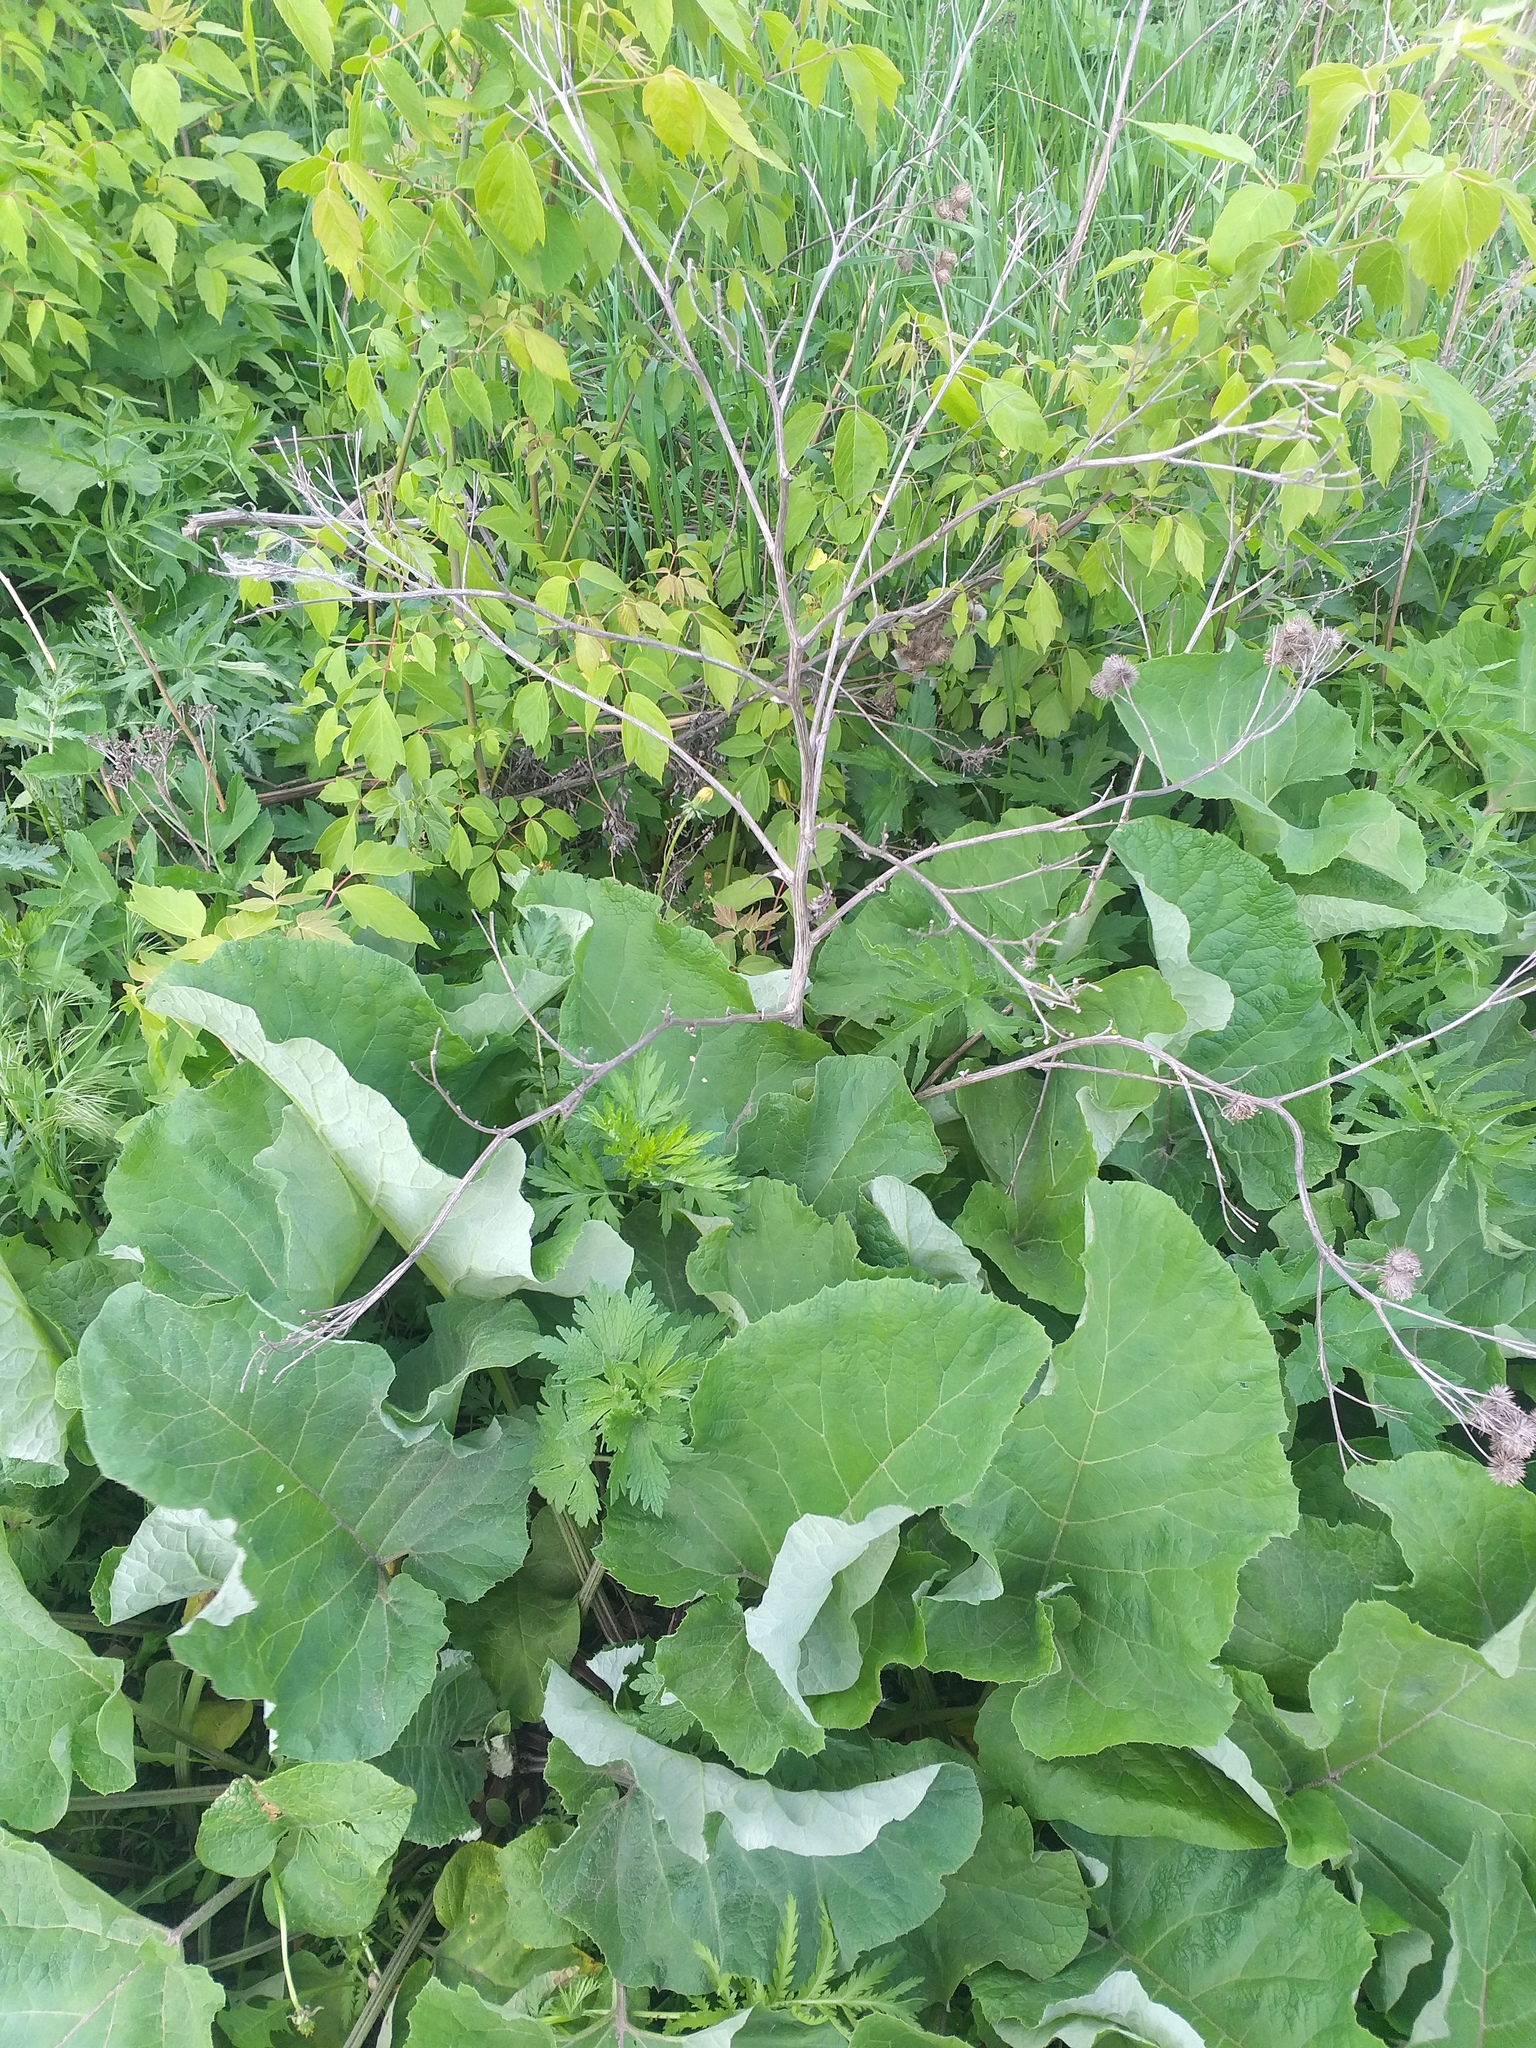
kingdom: Plantae
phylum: Tracheophyta
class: Magnoliopsida
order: Asterales
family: Asteraceae
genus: Arctium
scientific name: Arctium tomentosum
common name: Woolly burdock
